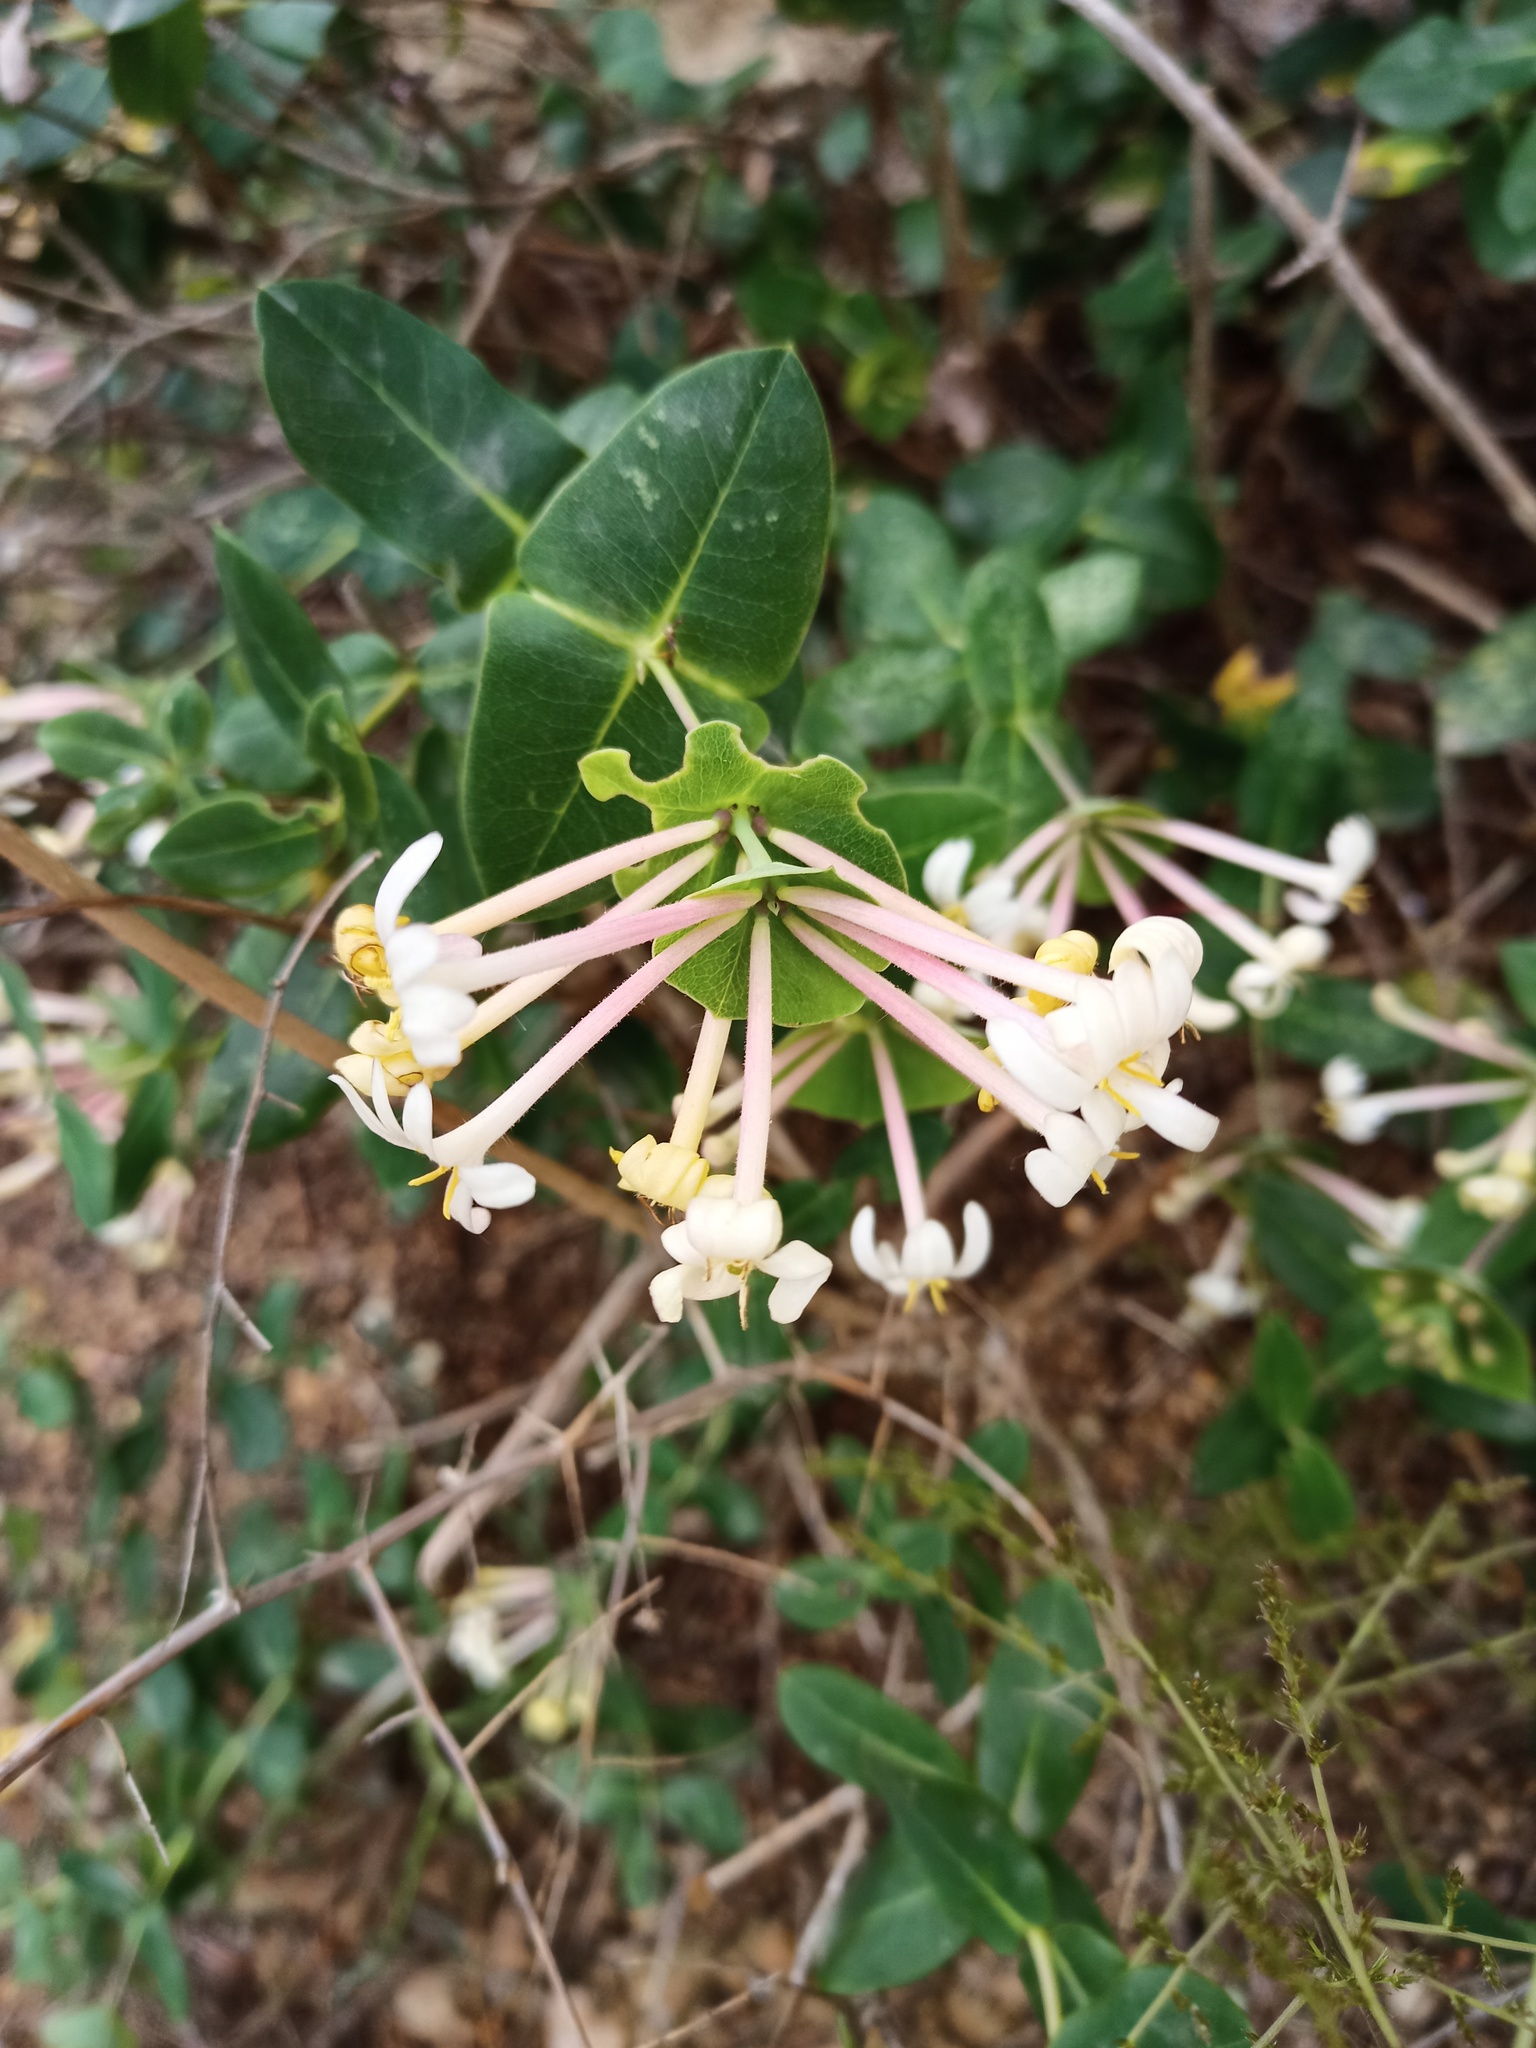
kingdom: Plantae
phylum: Tracheophyta
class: Magnoliopsida
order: Dipsacales
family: Caprifoliaceae
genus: Lonicera
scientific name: Lonicera implexa
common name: Minorca honeysuckle
